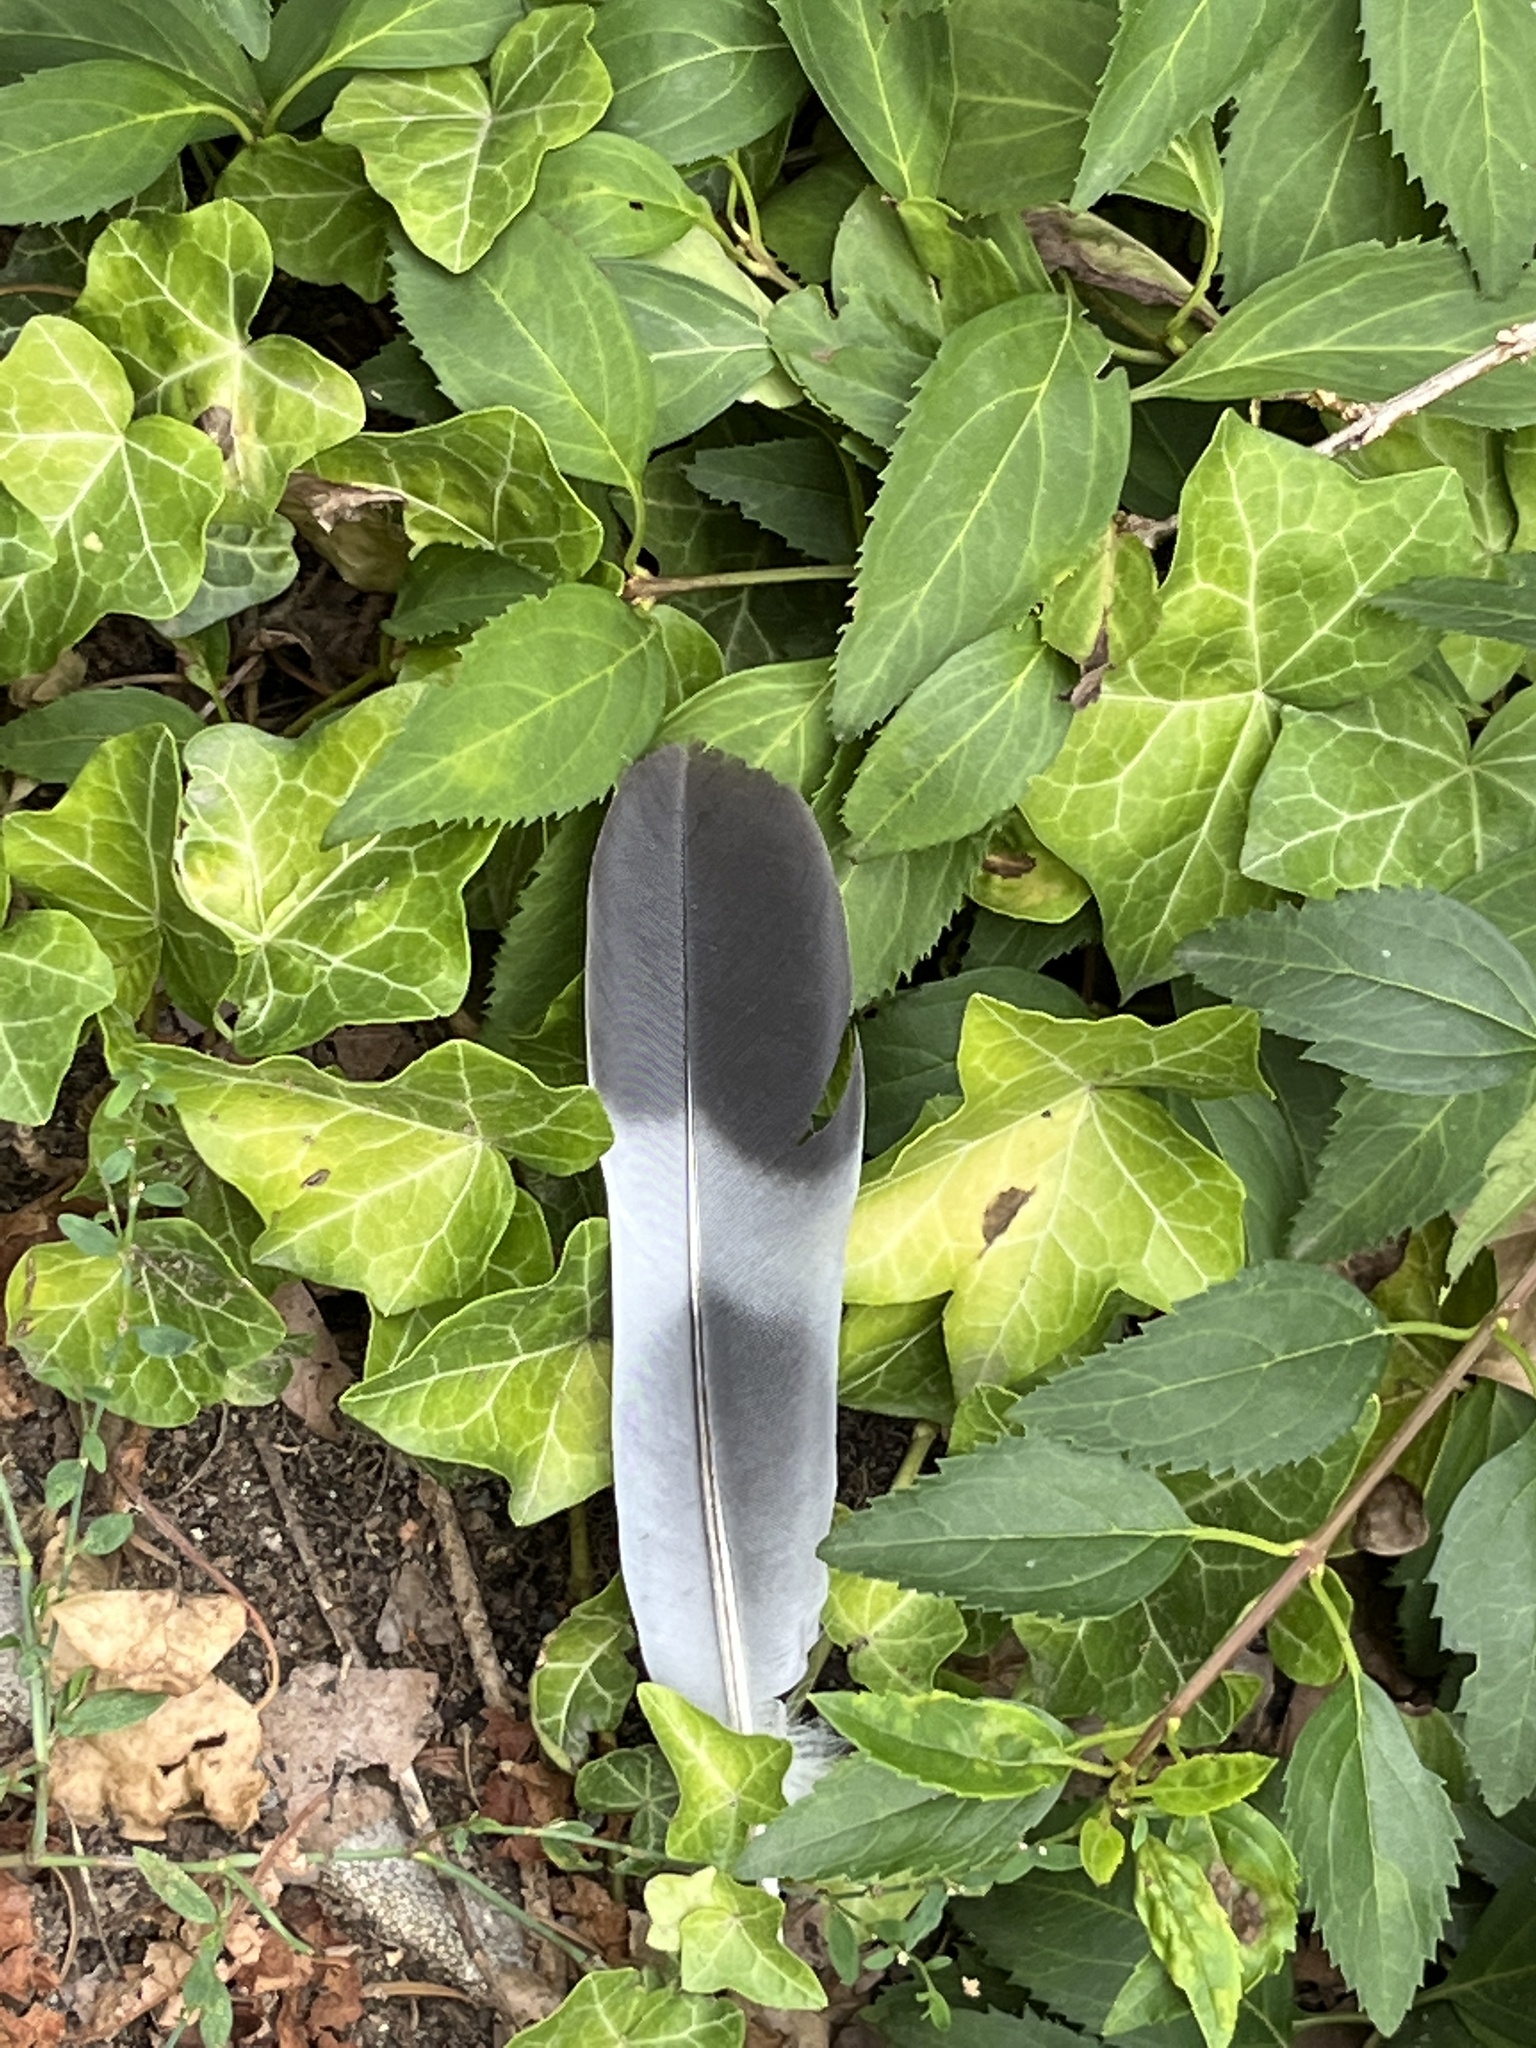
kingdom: Animalia
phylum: Chordata
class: Aves
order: Columbiformes
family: Columbidae
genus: Columba
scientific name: Columba palumbus
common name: Common wood pigeon
